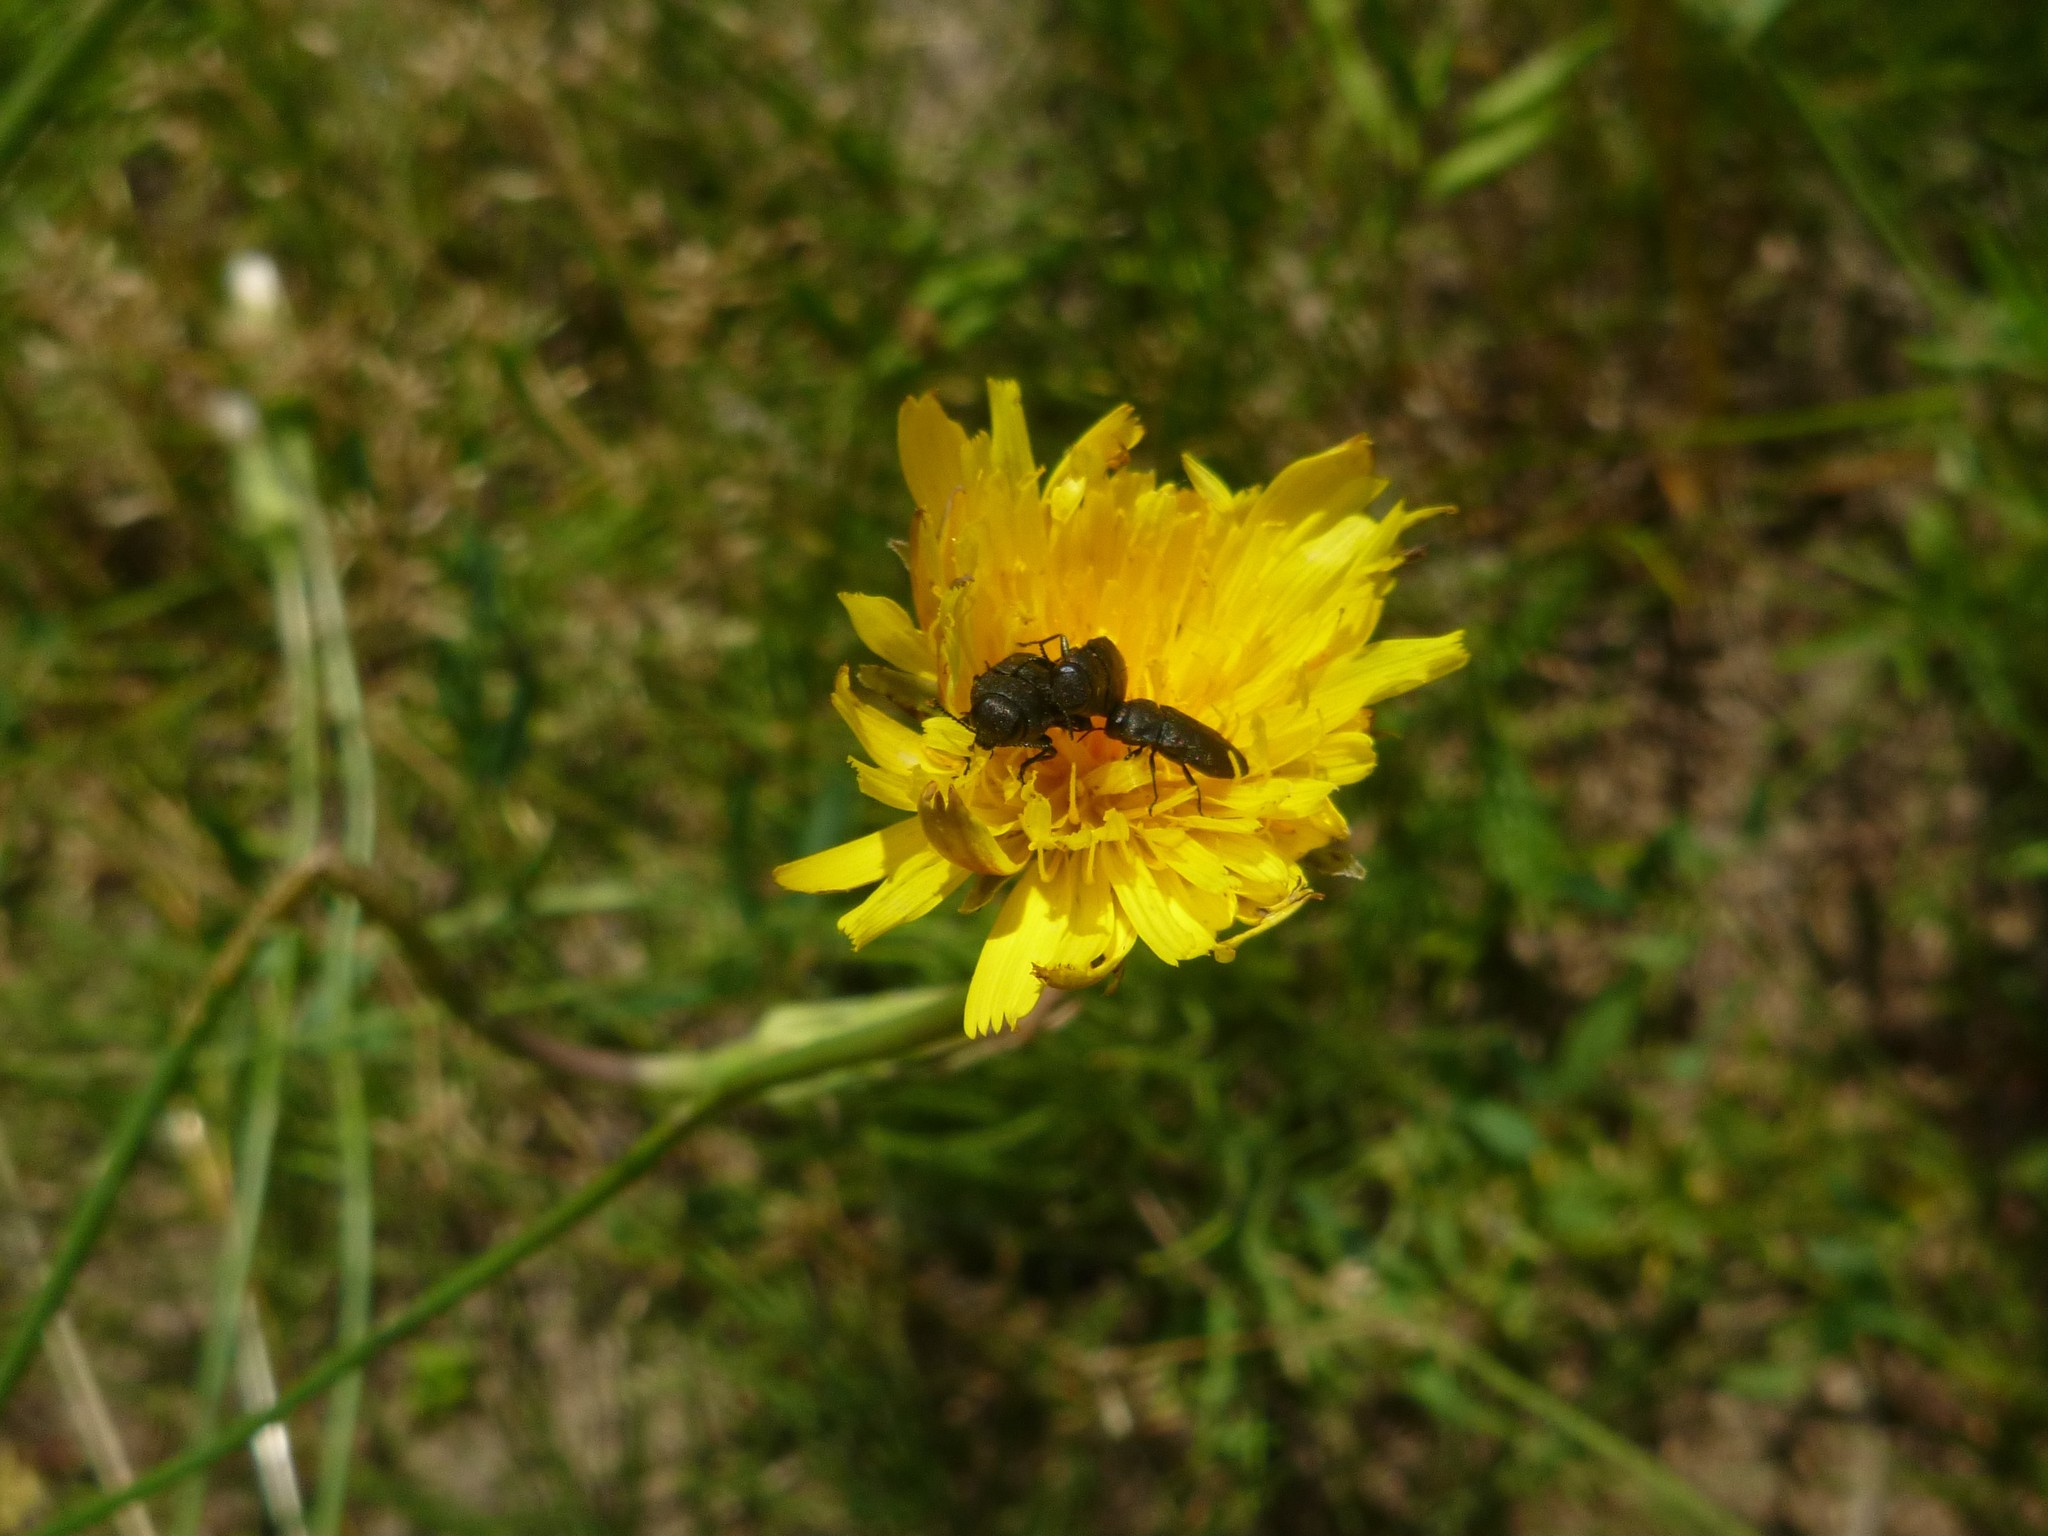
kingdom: Plantae
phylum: Tracheophyta
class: Magnoliopsida
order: Asterales
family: Asteraceae
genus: Hypochaeris
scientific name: Hypochaeris radicata
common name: Flatweed
